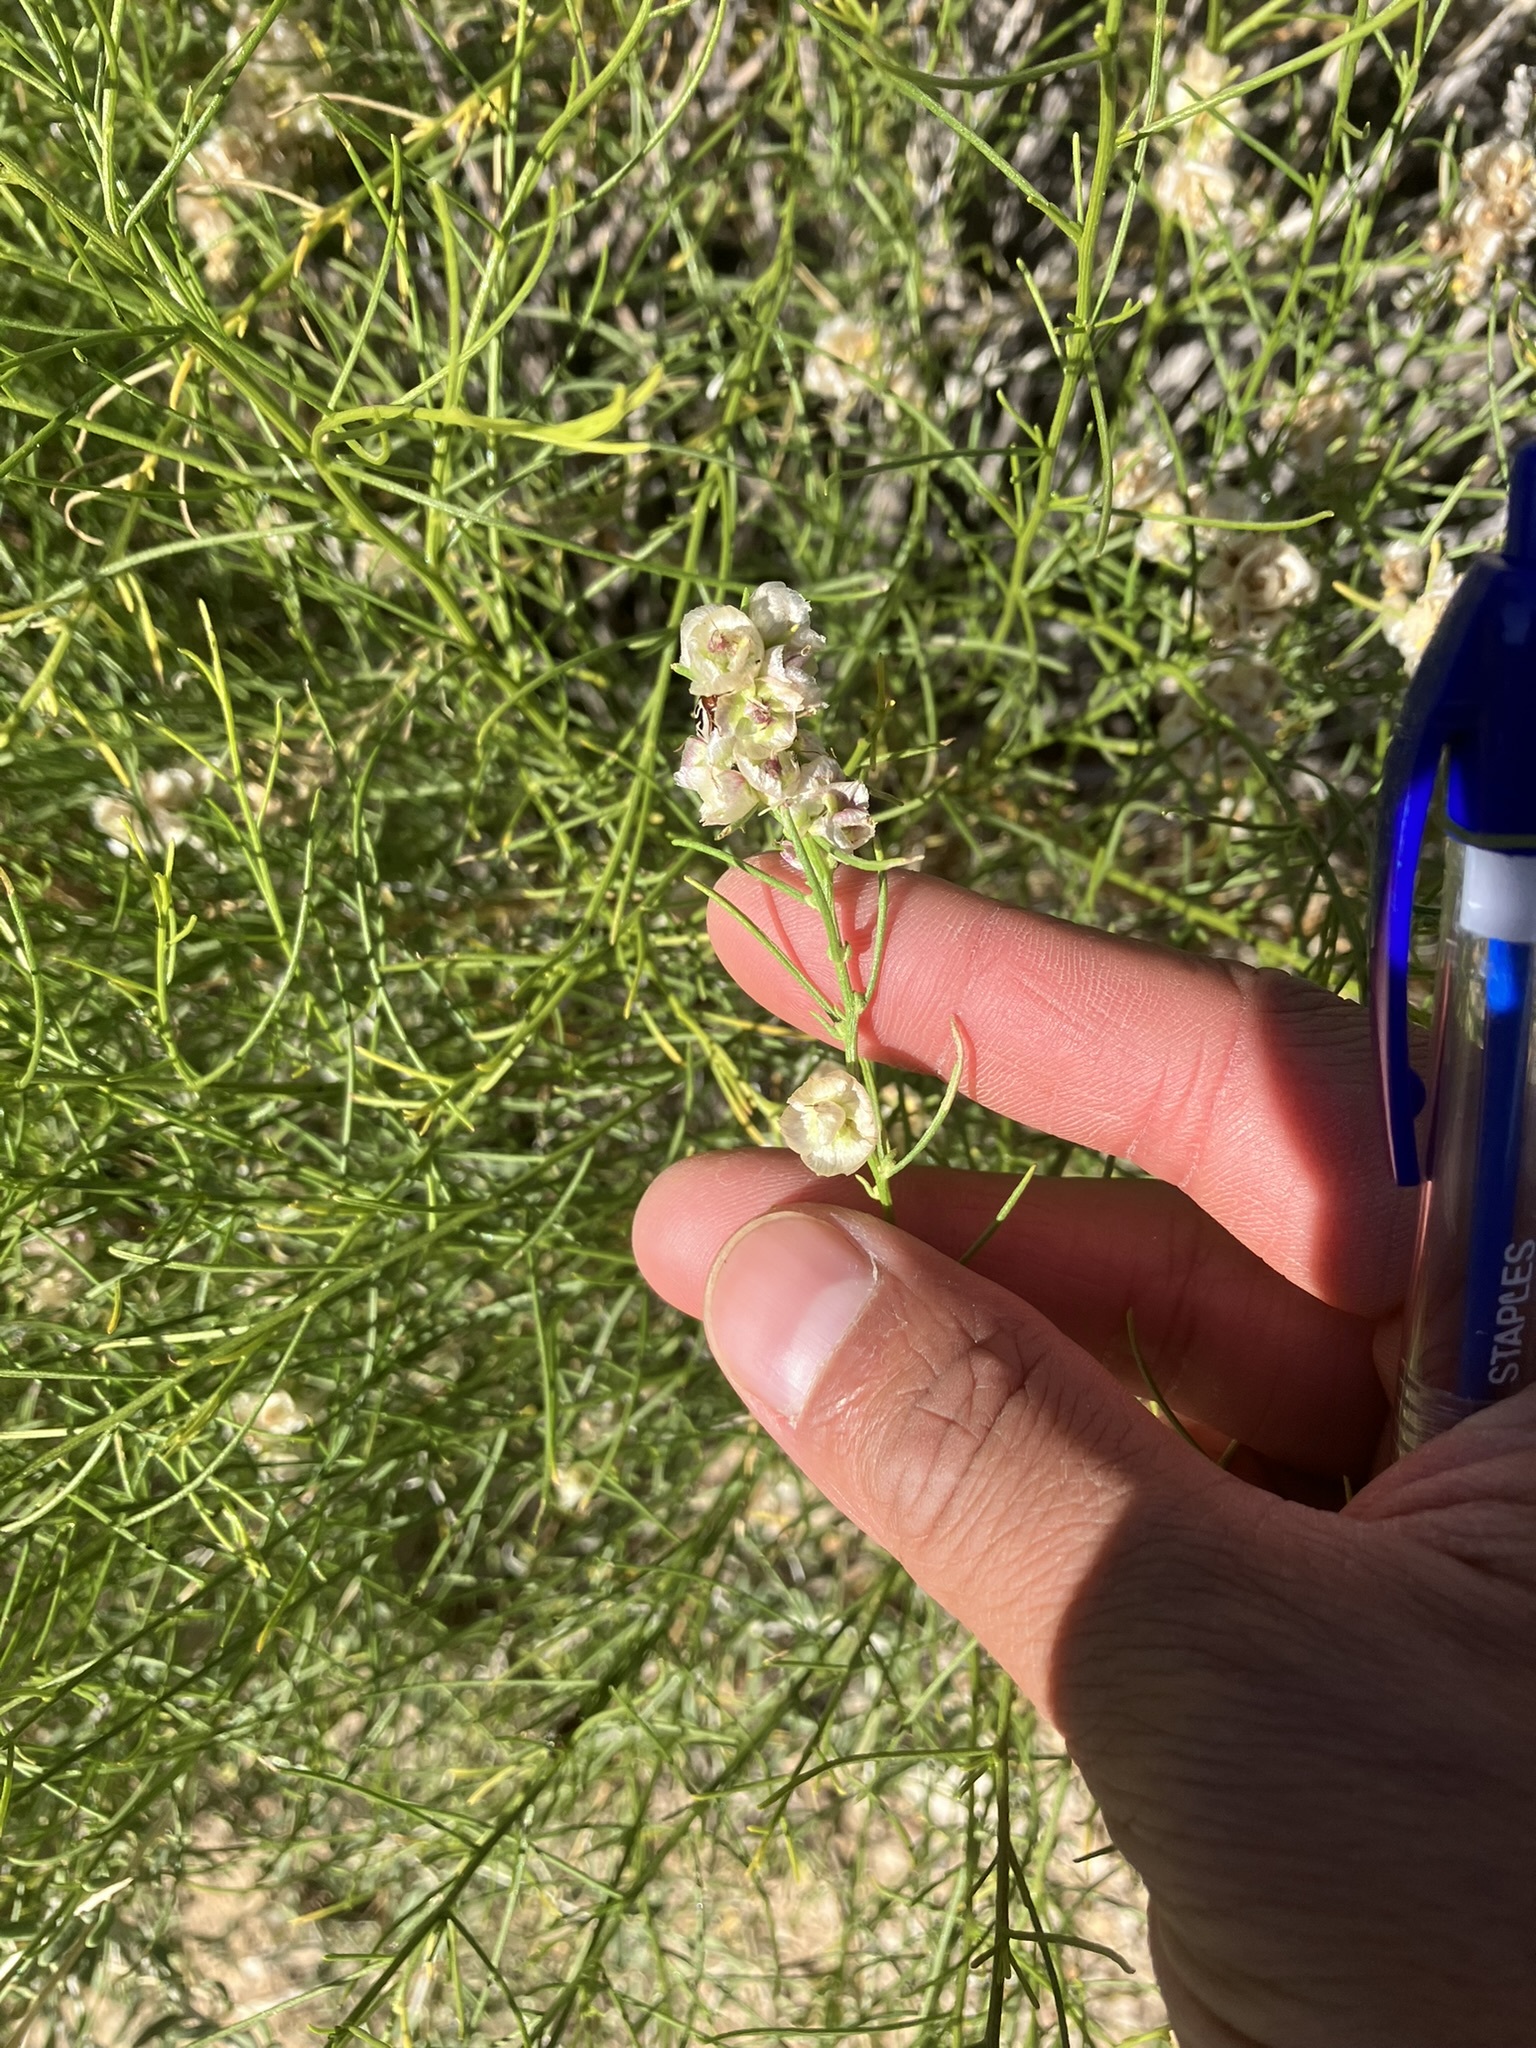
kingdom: Plantae
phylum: Tracheophyta
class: Magnoliopsida
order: Asterales
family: Asteraceae
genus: Ambrosia
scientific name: Ambrosia salsola
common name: Burrobrush
